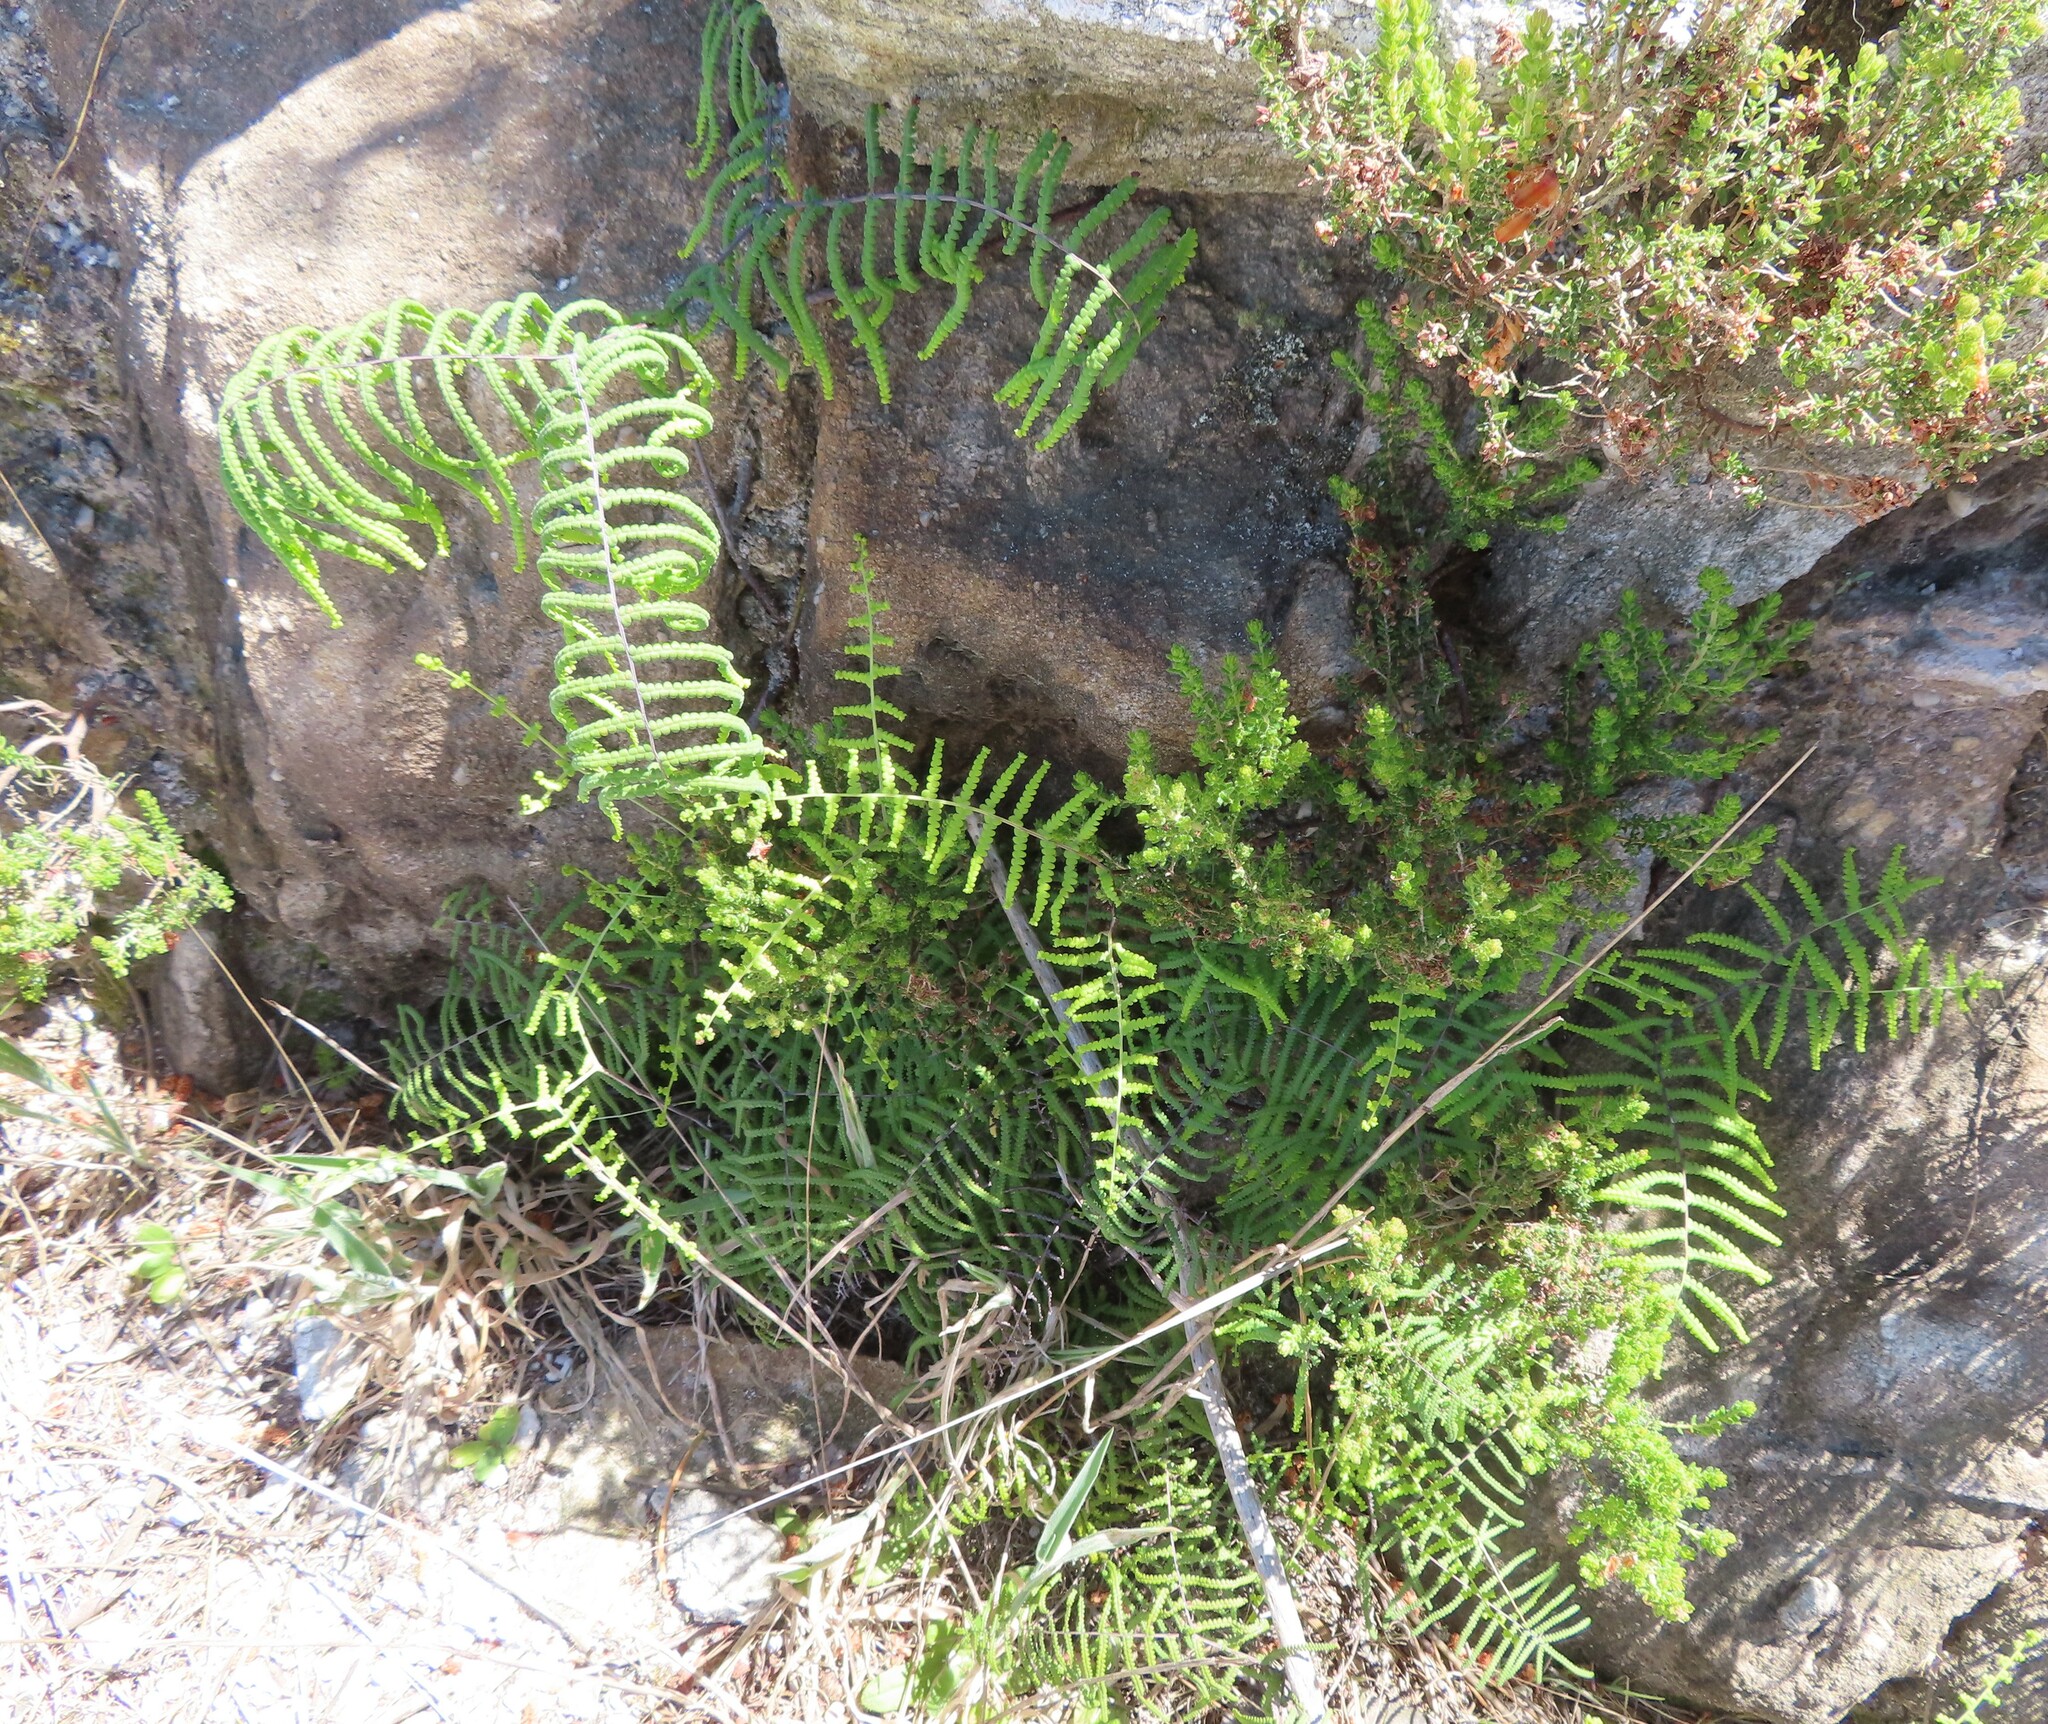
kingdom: Plantae
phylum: Tracheophyta
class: Polypodiopsida
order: Gleicheniales
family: Gleicheniaceae
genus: Gleichenia
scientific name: Gleichenia polypodioides
